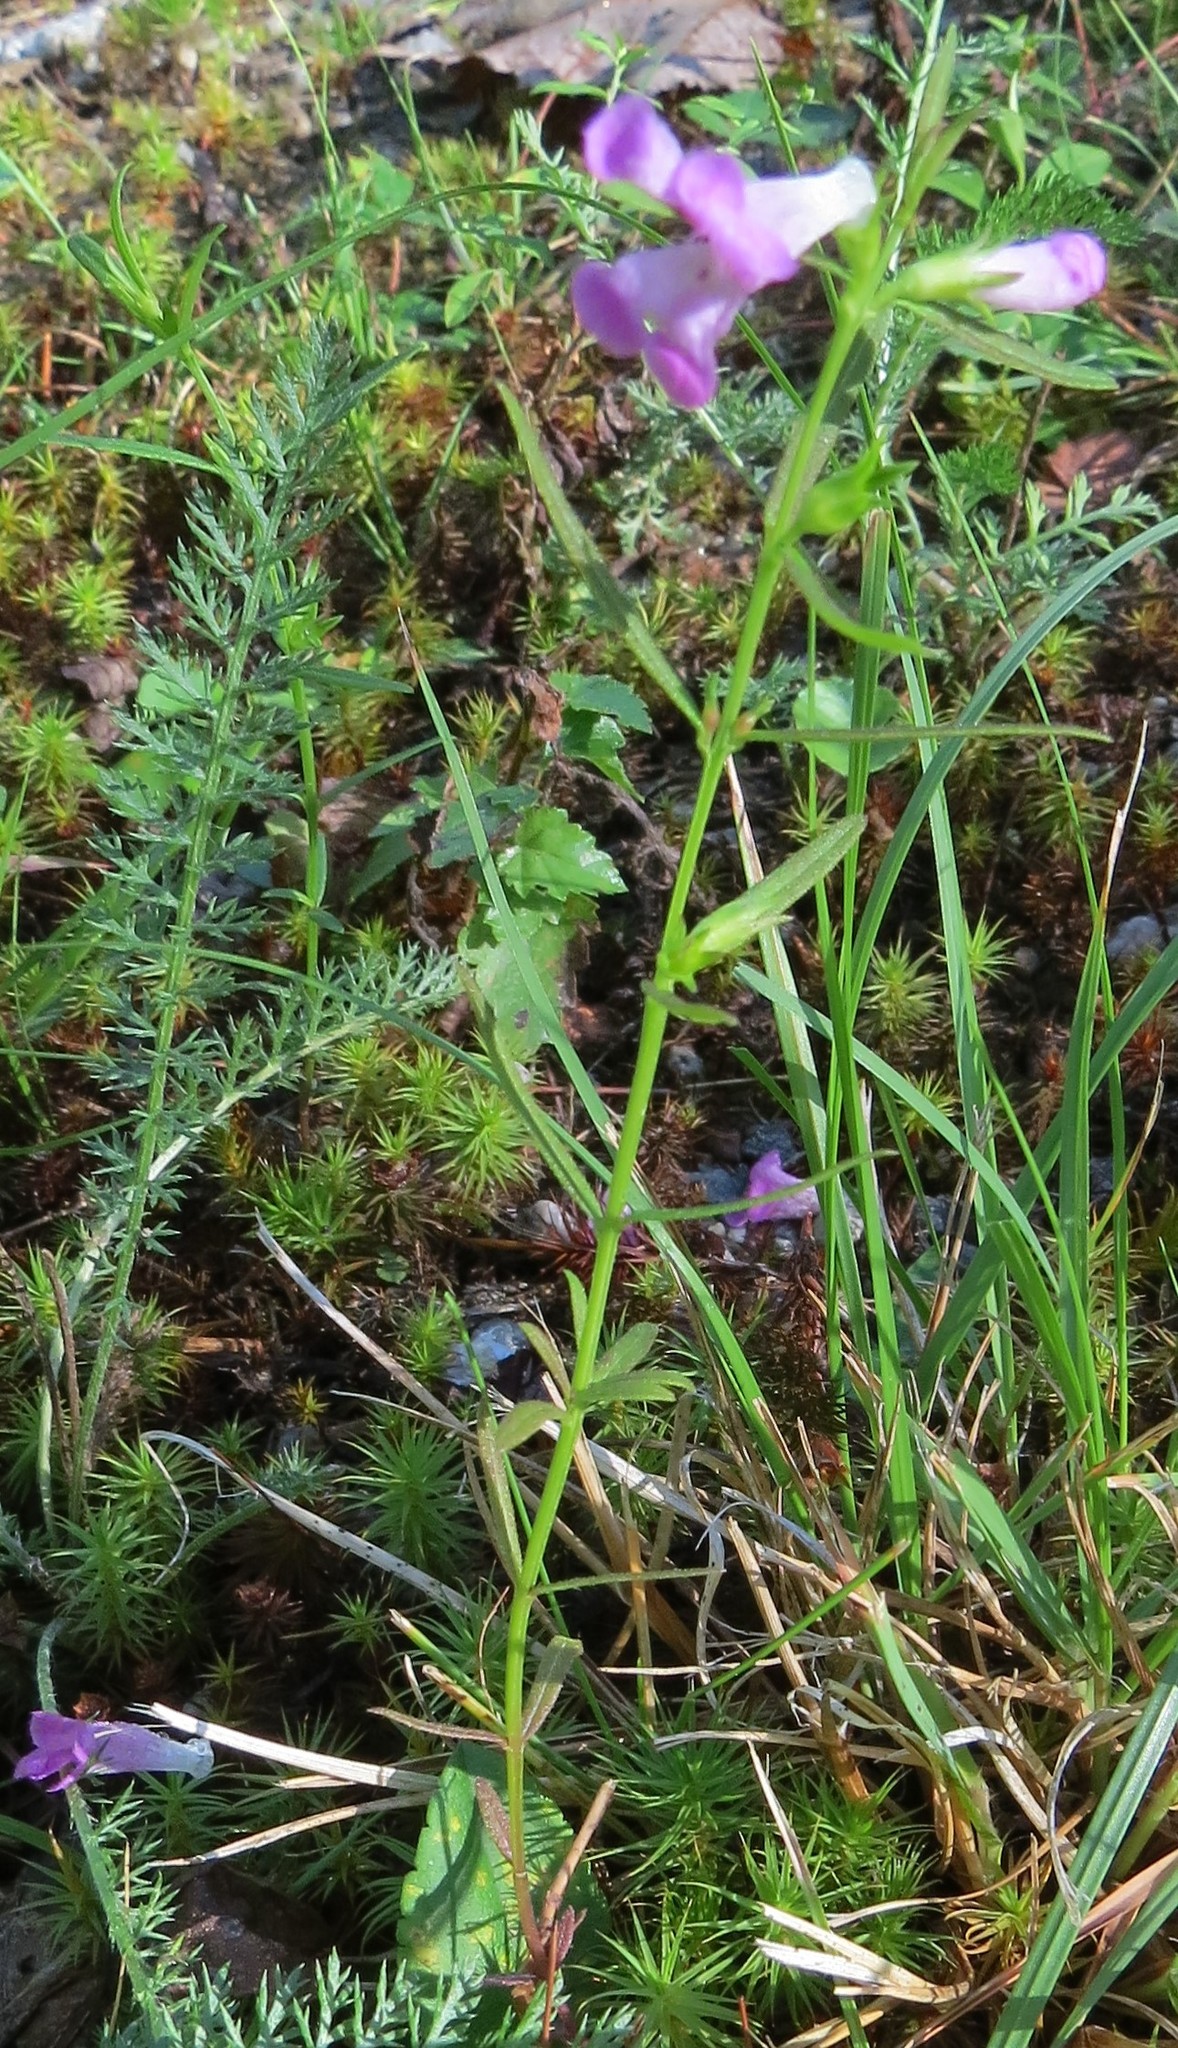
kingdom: Plantae
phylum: Tracheophyta
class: Magnoliopsida
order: Lamiales
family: Orobanchaceae
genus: Agalinis
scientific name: Agalinis neoscotica
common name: Middleton false foxglove
